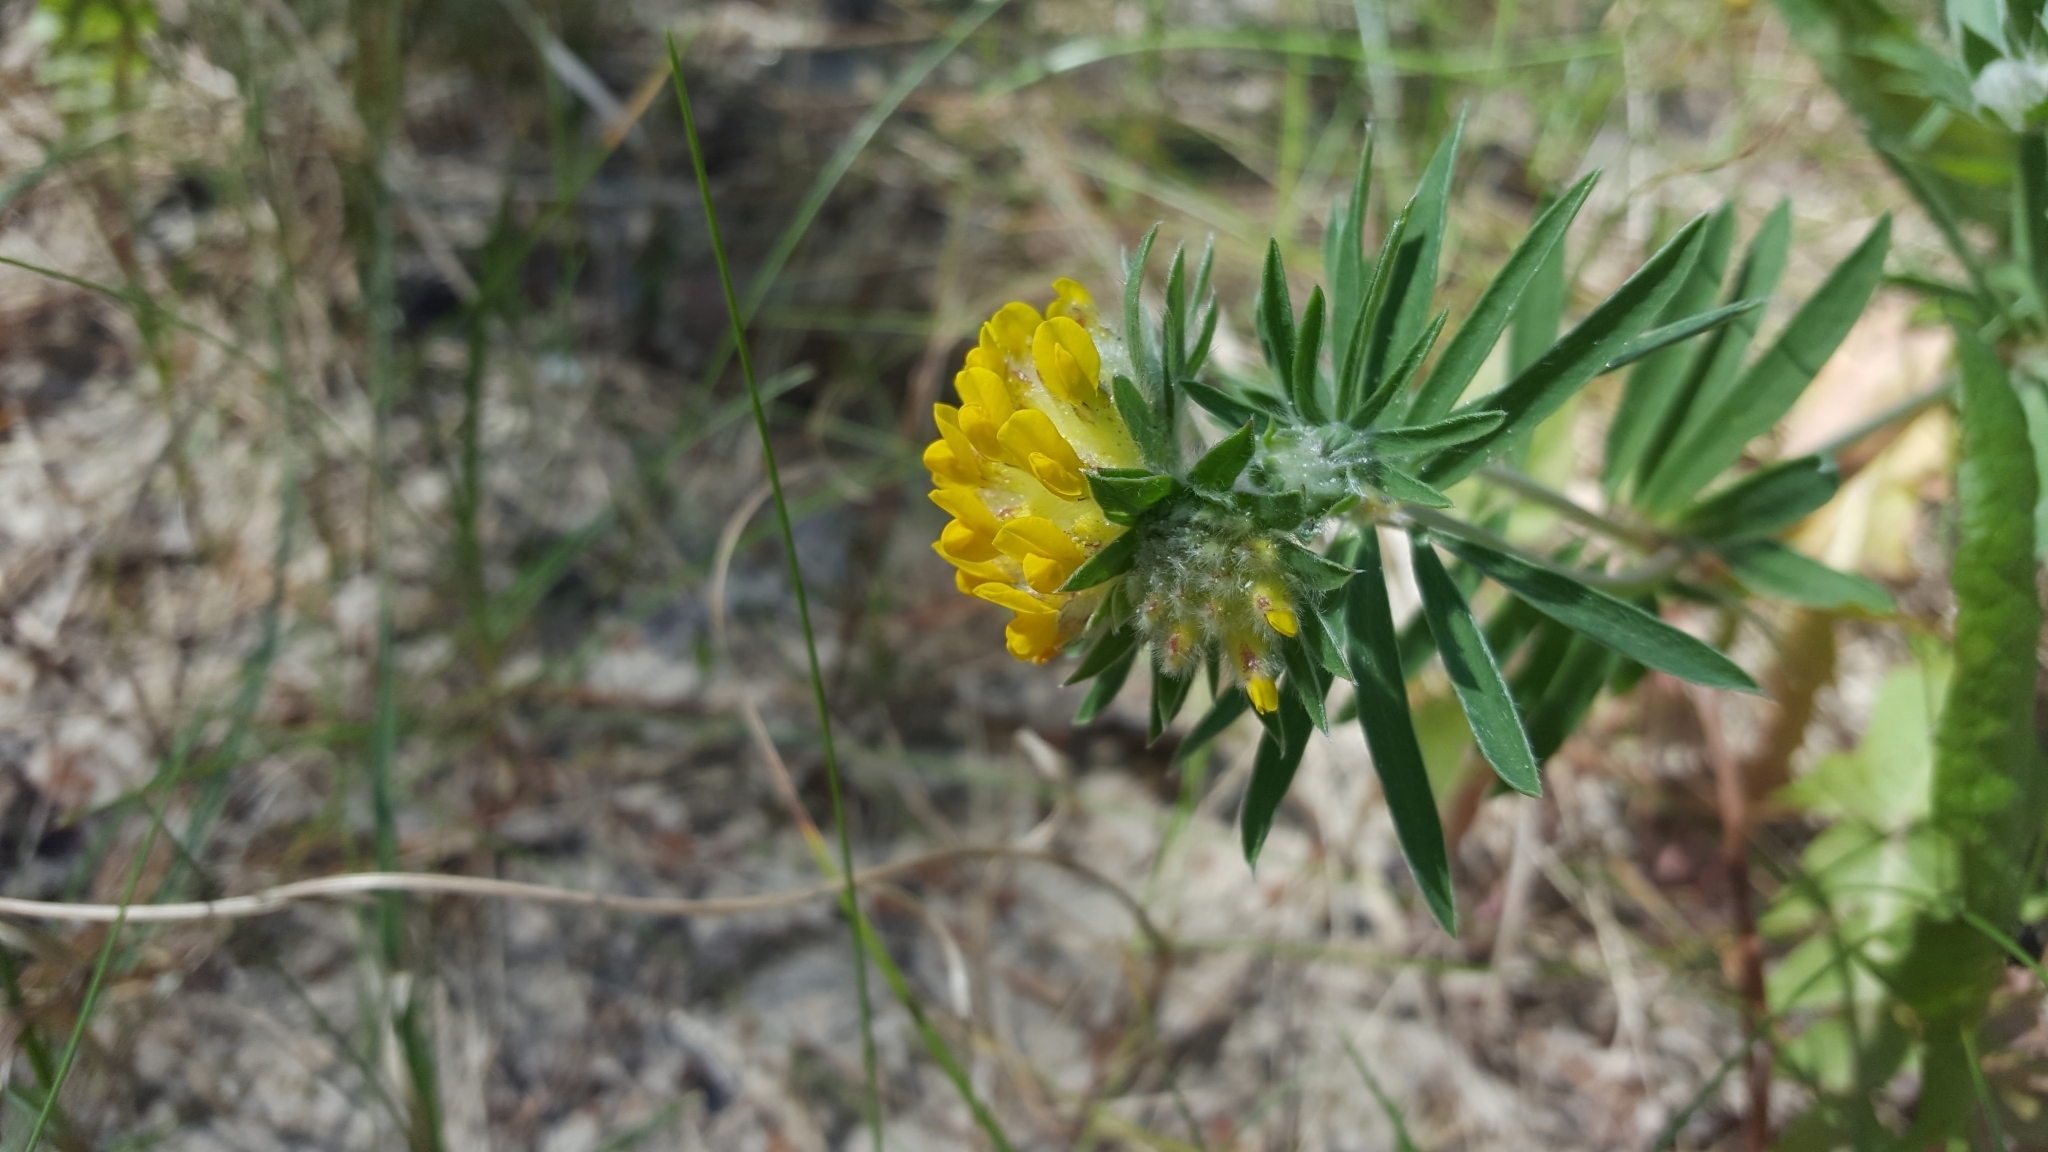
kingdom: Plantae
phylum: Tracheophyta
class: Magnoliopsida
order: Fabales
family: Fabaceae
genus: Anthyllis
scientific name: Anthyllis vulneraria
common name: Kidney vetch
